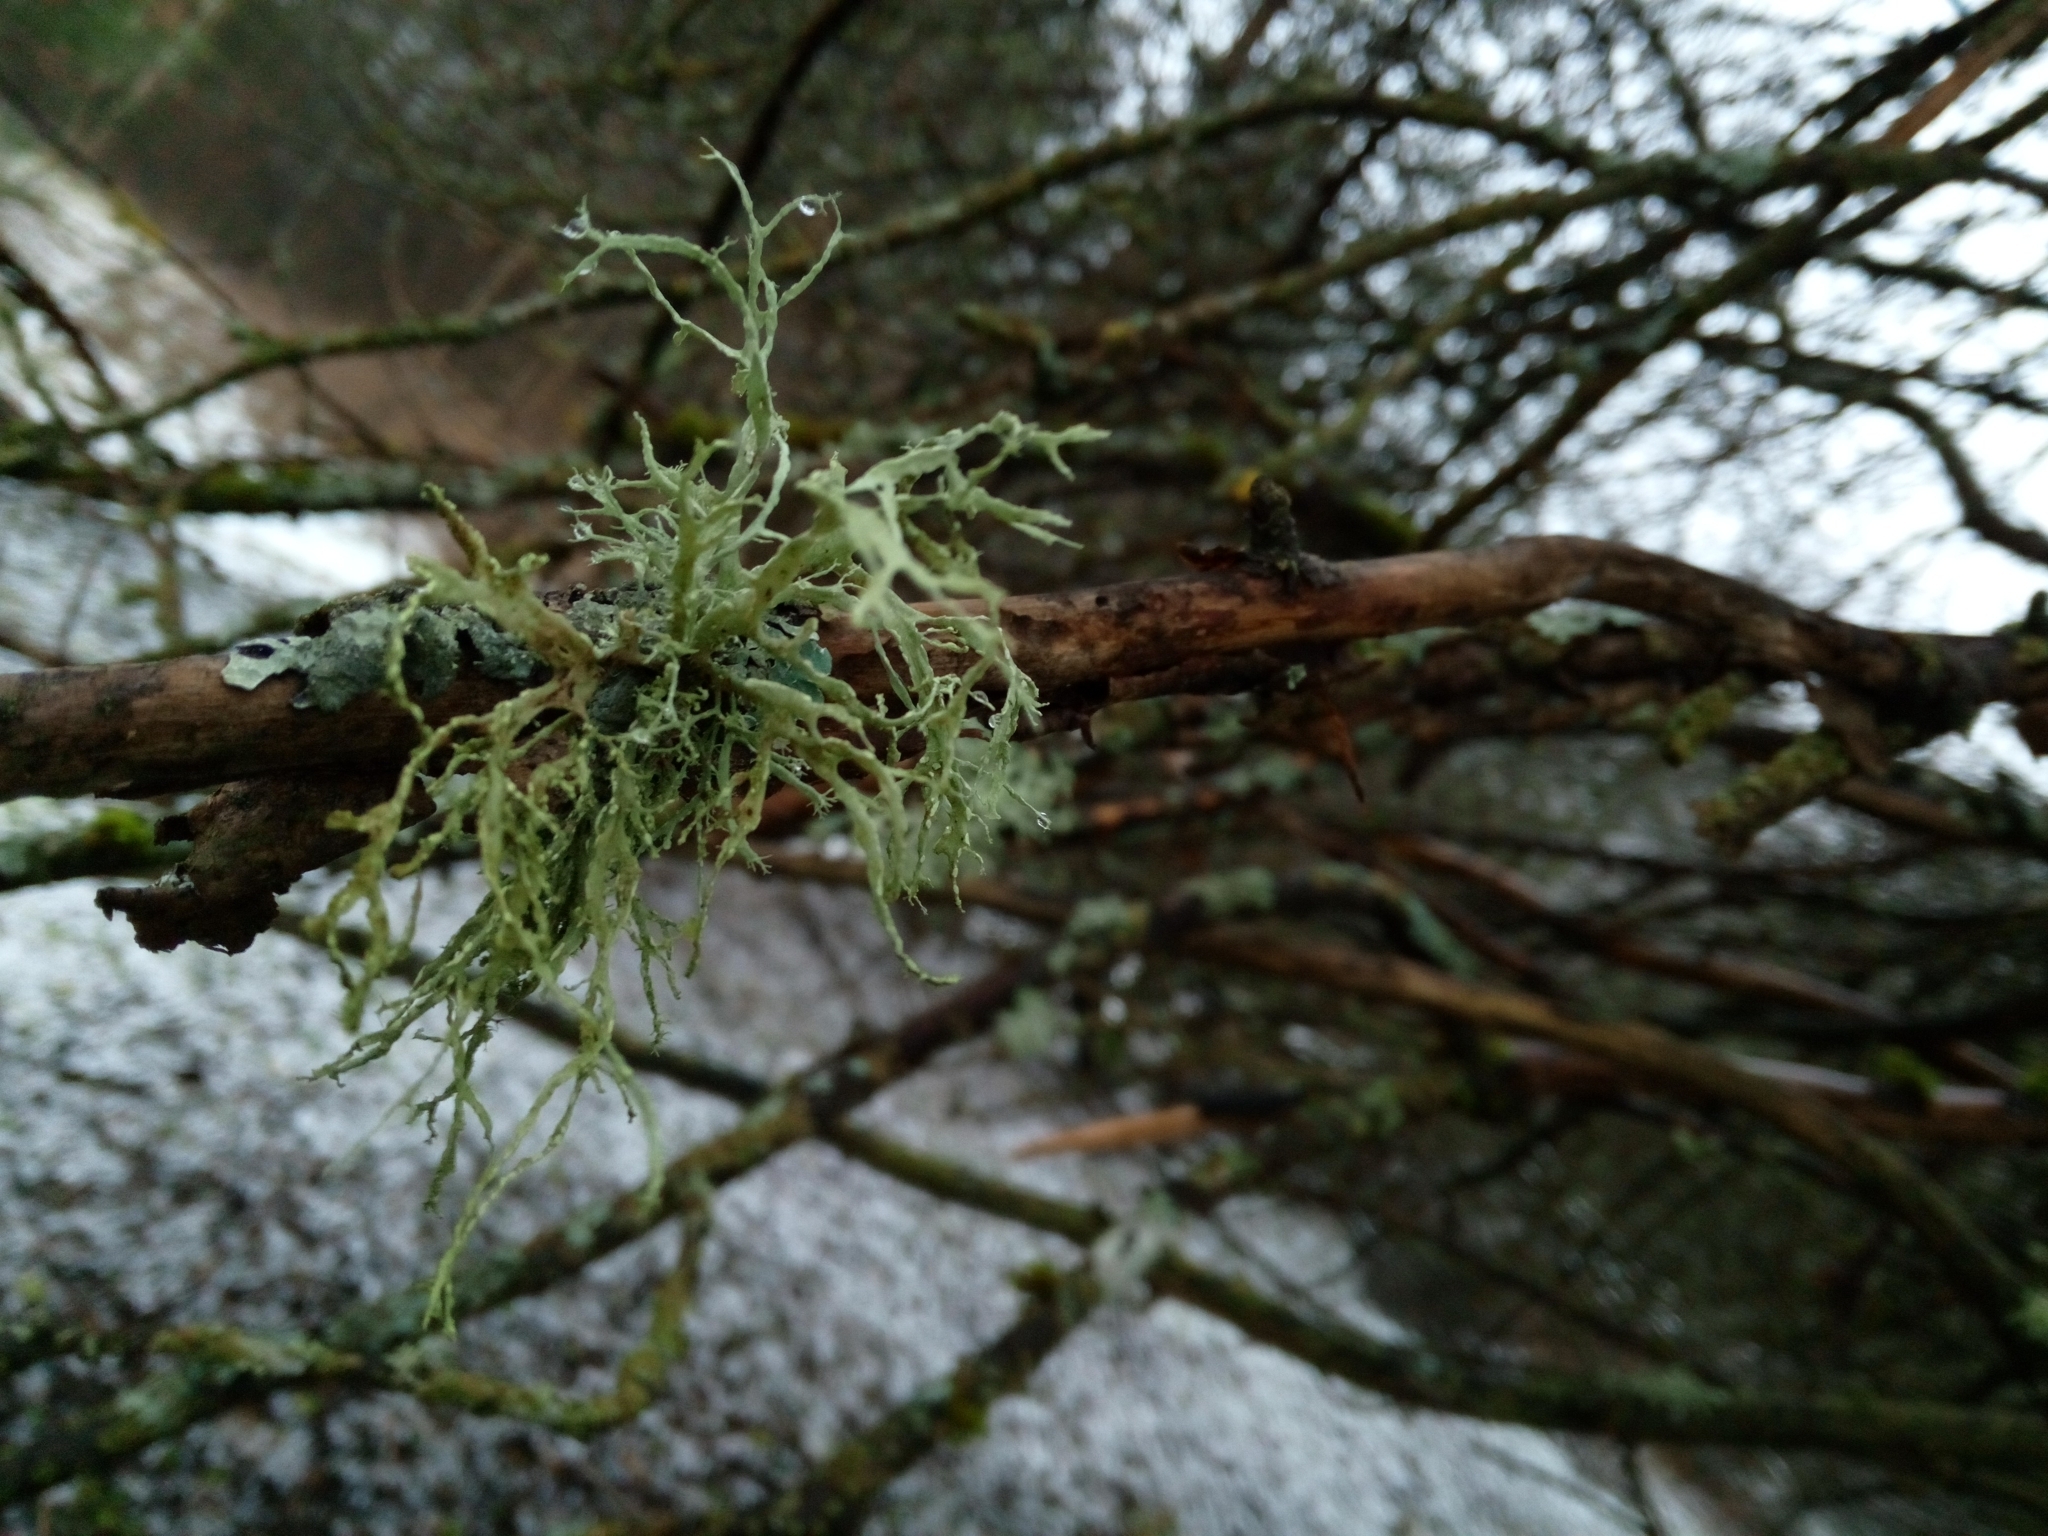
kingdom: Fungi
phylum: Ascomycota
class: Lecanoromycetes
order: Lecanorales
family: Ramalinaceae
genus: Ramalina
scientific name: Ramalina farinacea
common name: Farinose cartilage lichen
